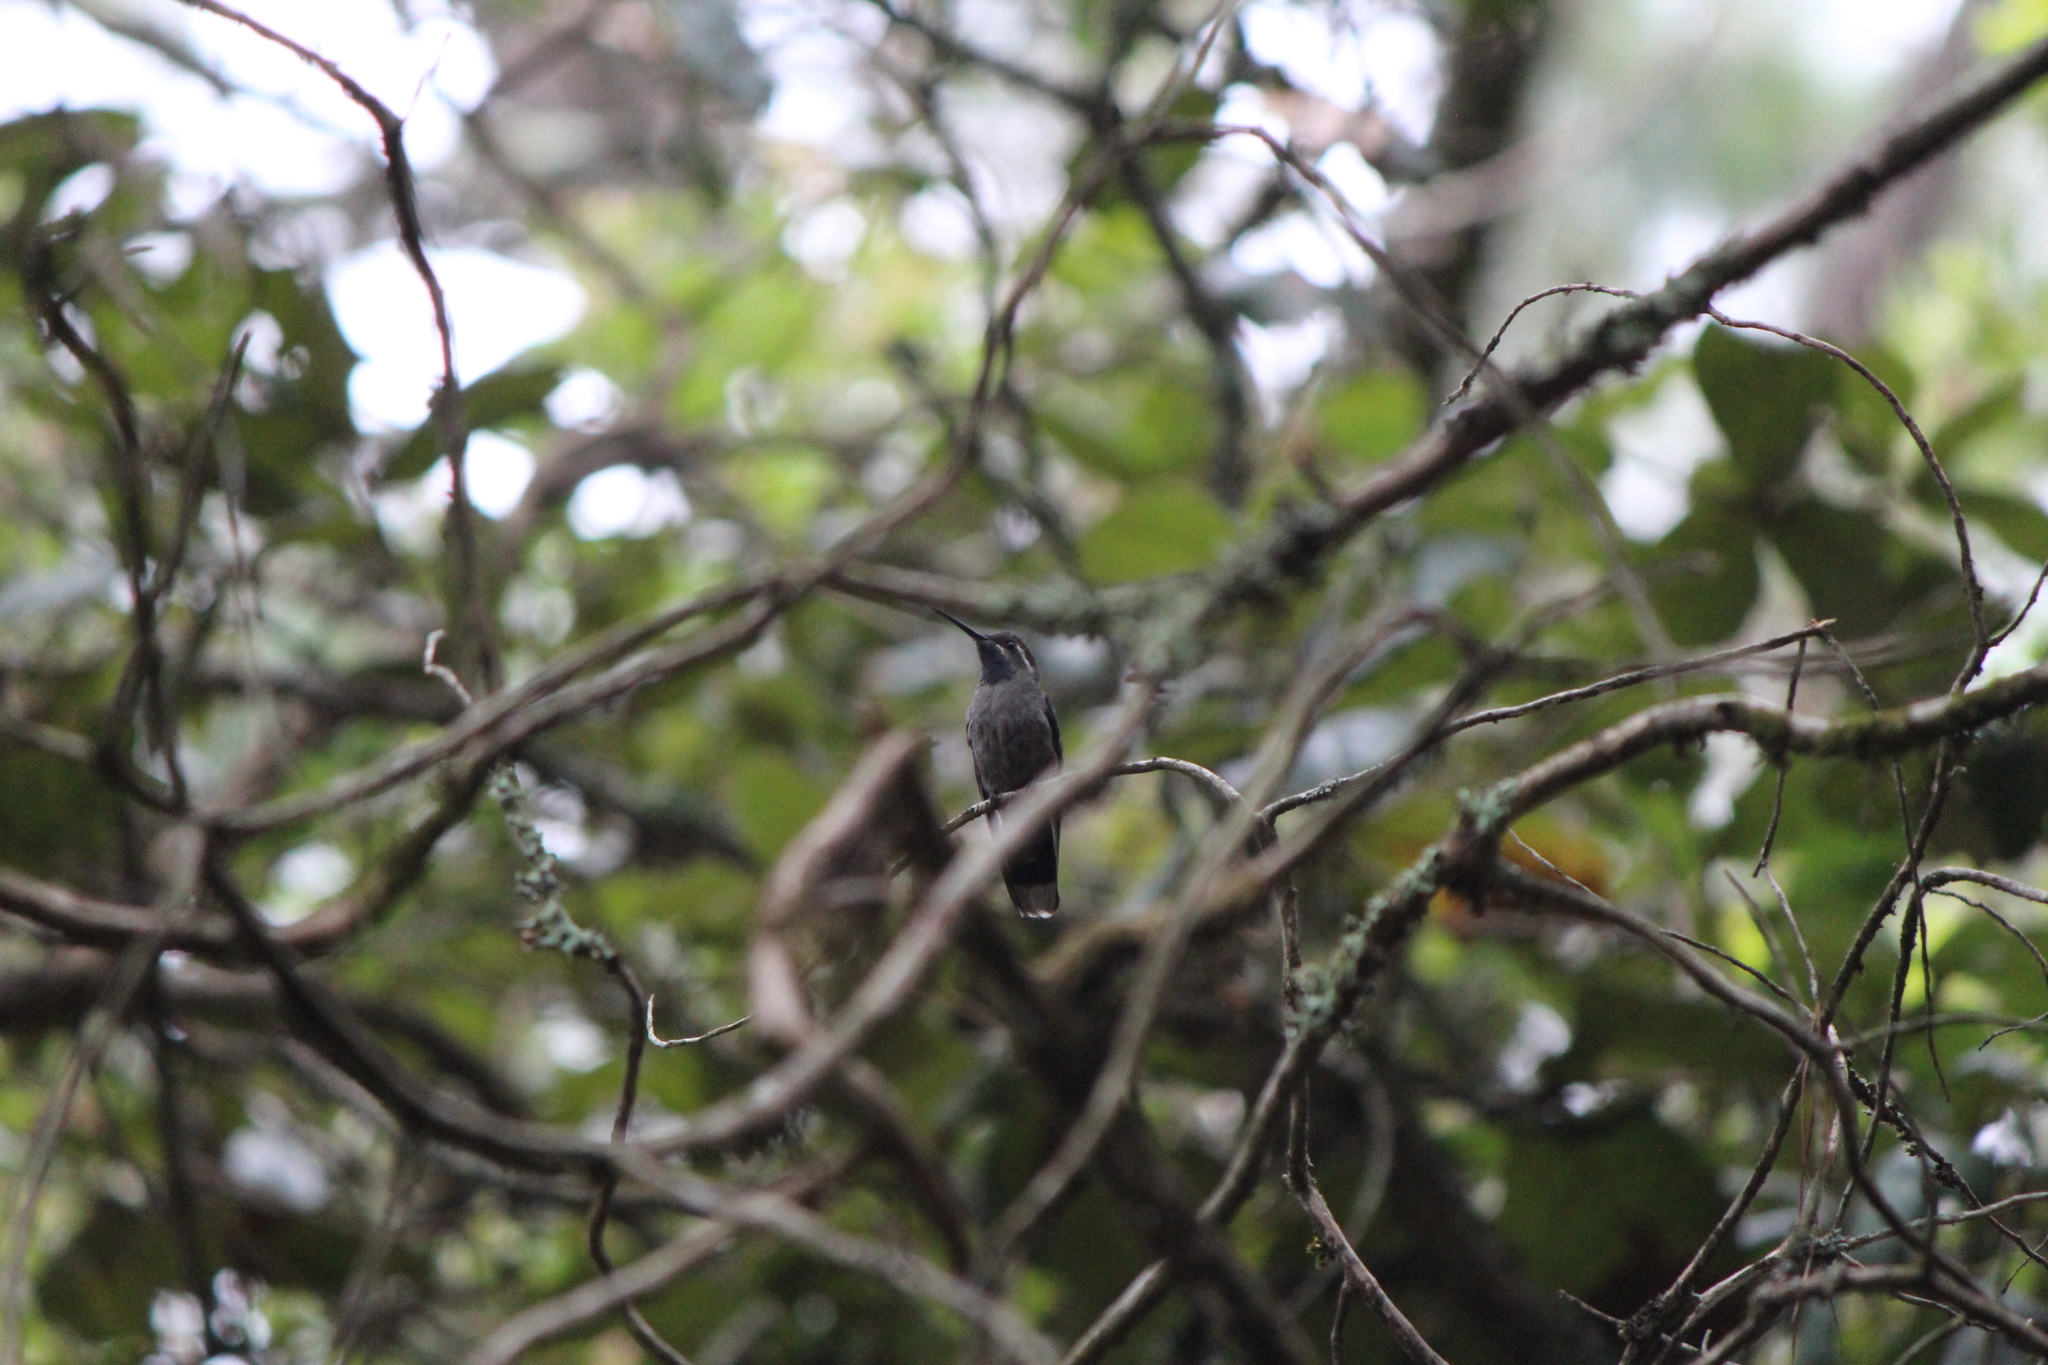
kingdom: Animalia
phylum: Chordata
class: Aves
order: Apodiformes
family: Trochilidae
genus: Lampornis
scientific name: Lampornis clemenciae
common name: Blue-throated mountaingem
